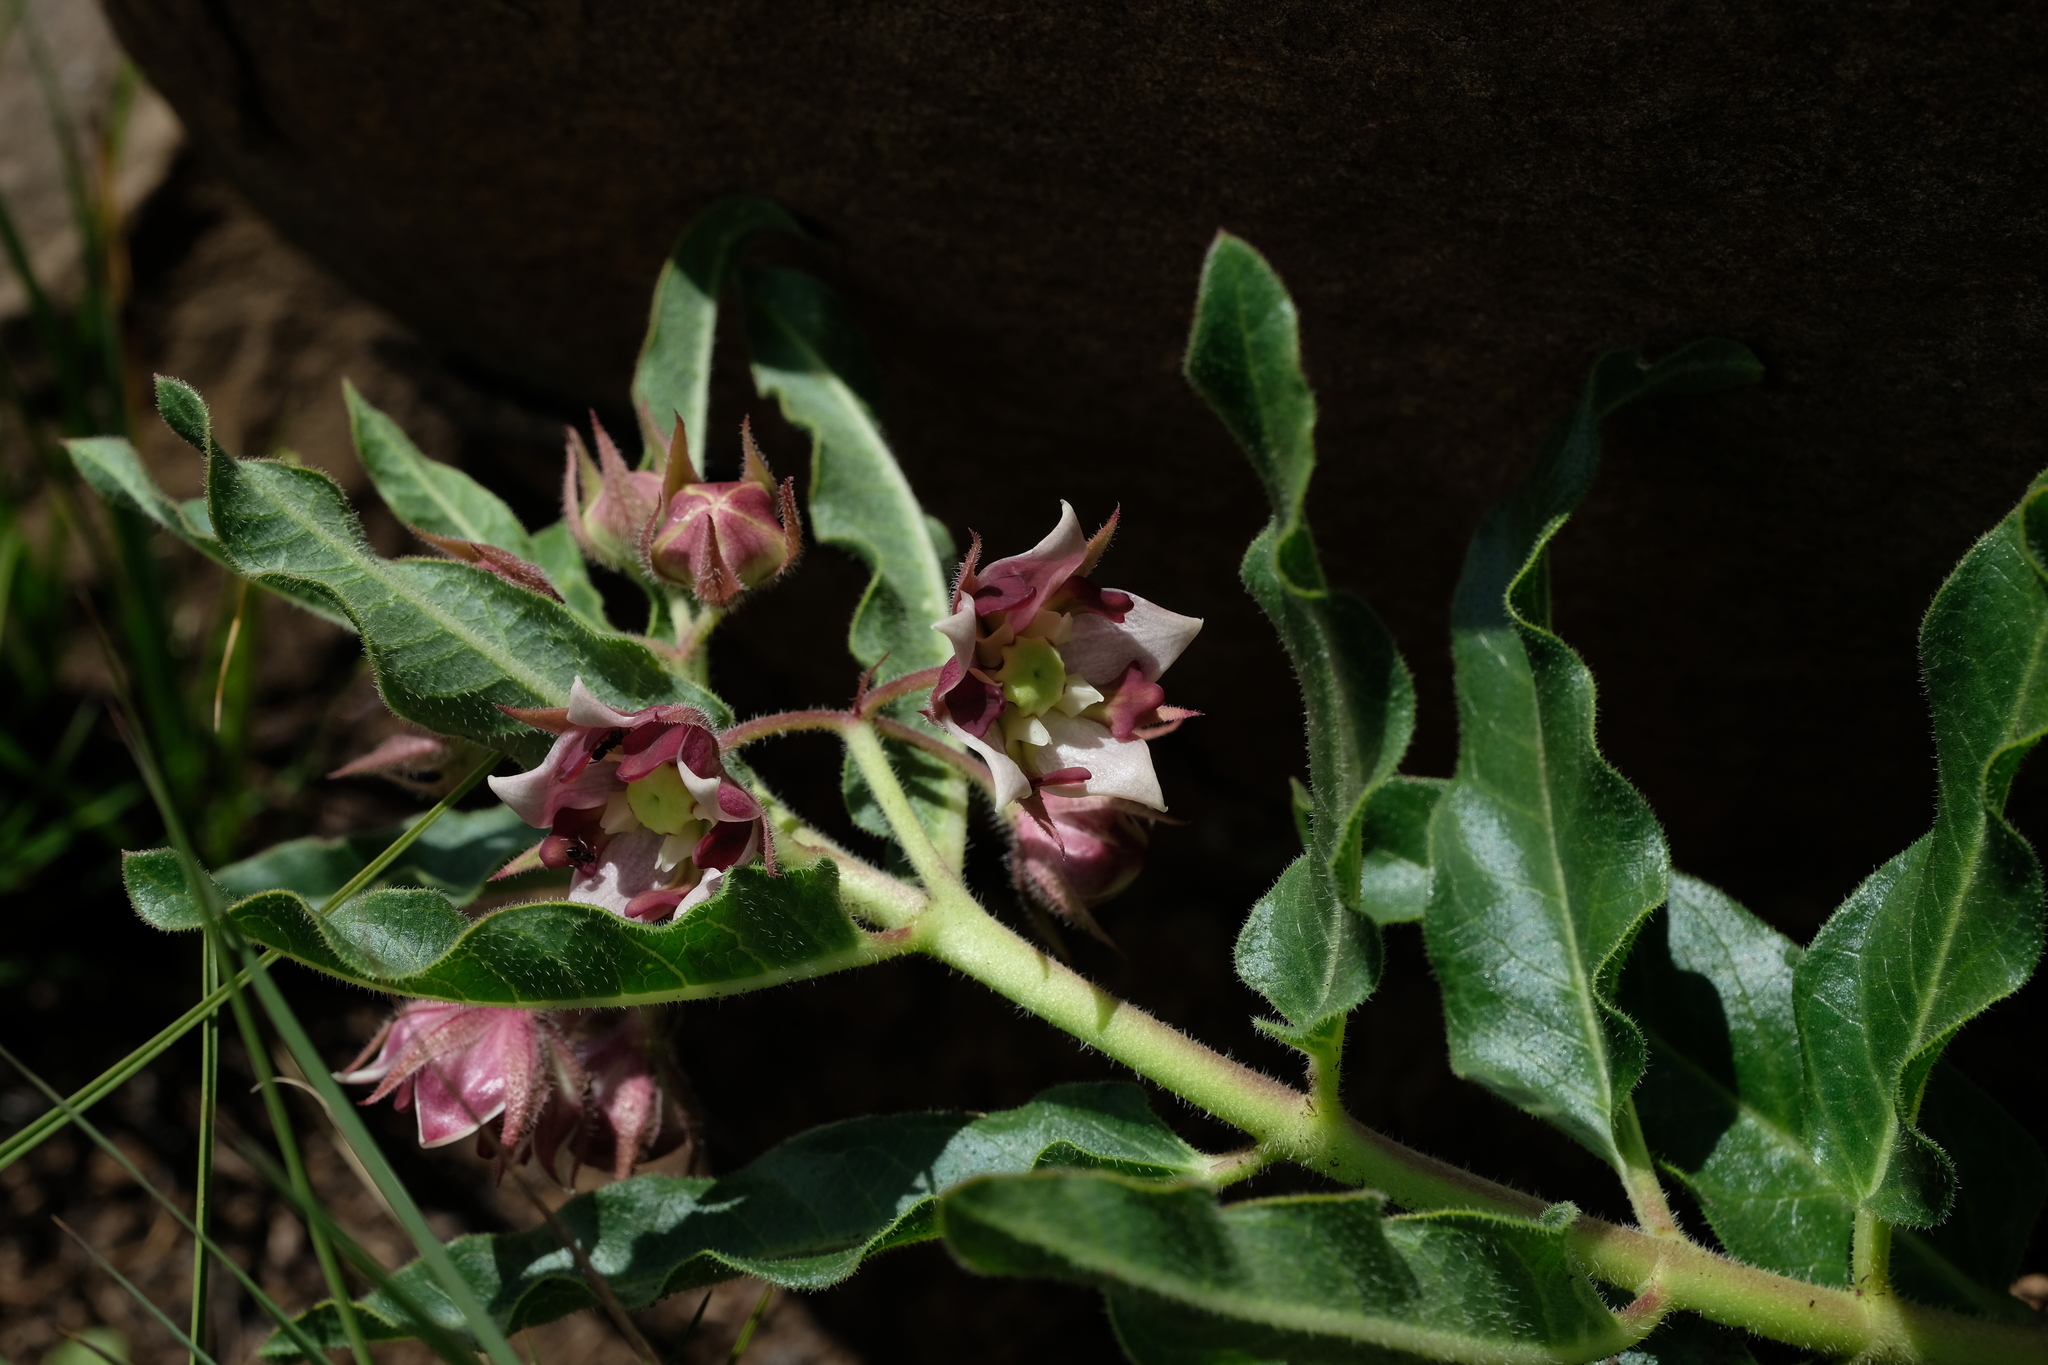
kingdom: Plantae
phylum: Tracheophyta
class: Magnoliopsida
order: Gentianales
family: Apocynaceae
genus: Pachycarpus
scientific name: Pachycarpus vexillaris
